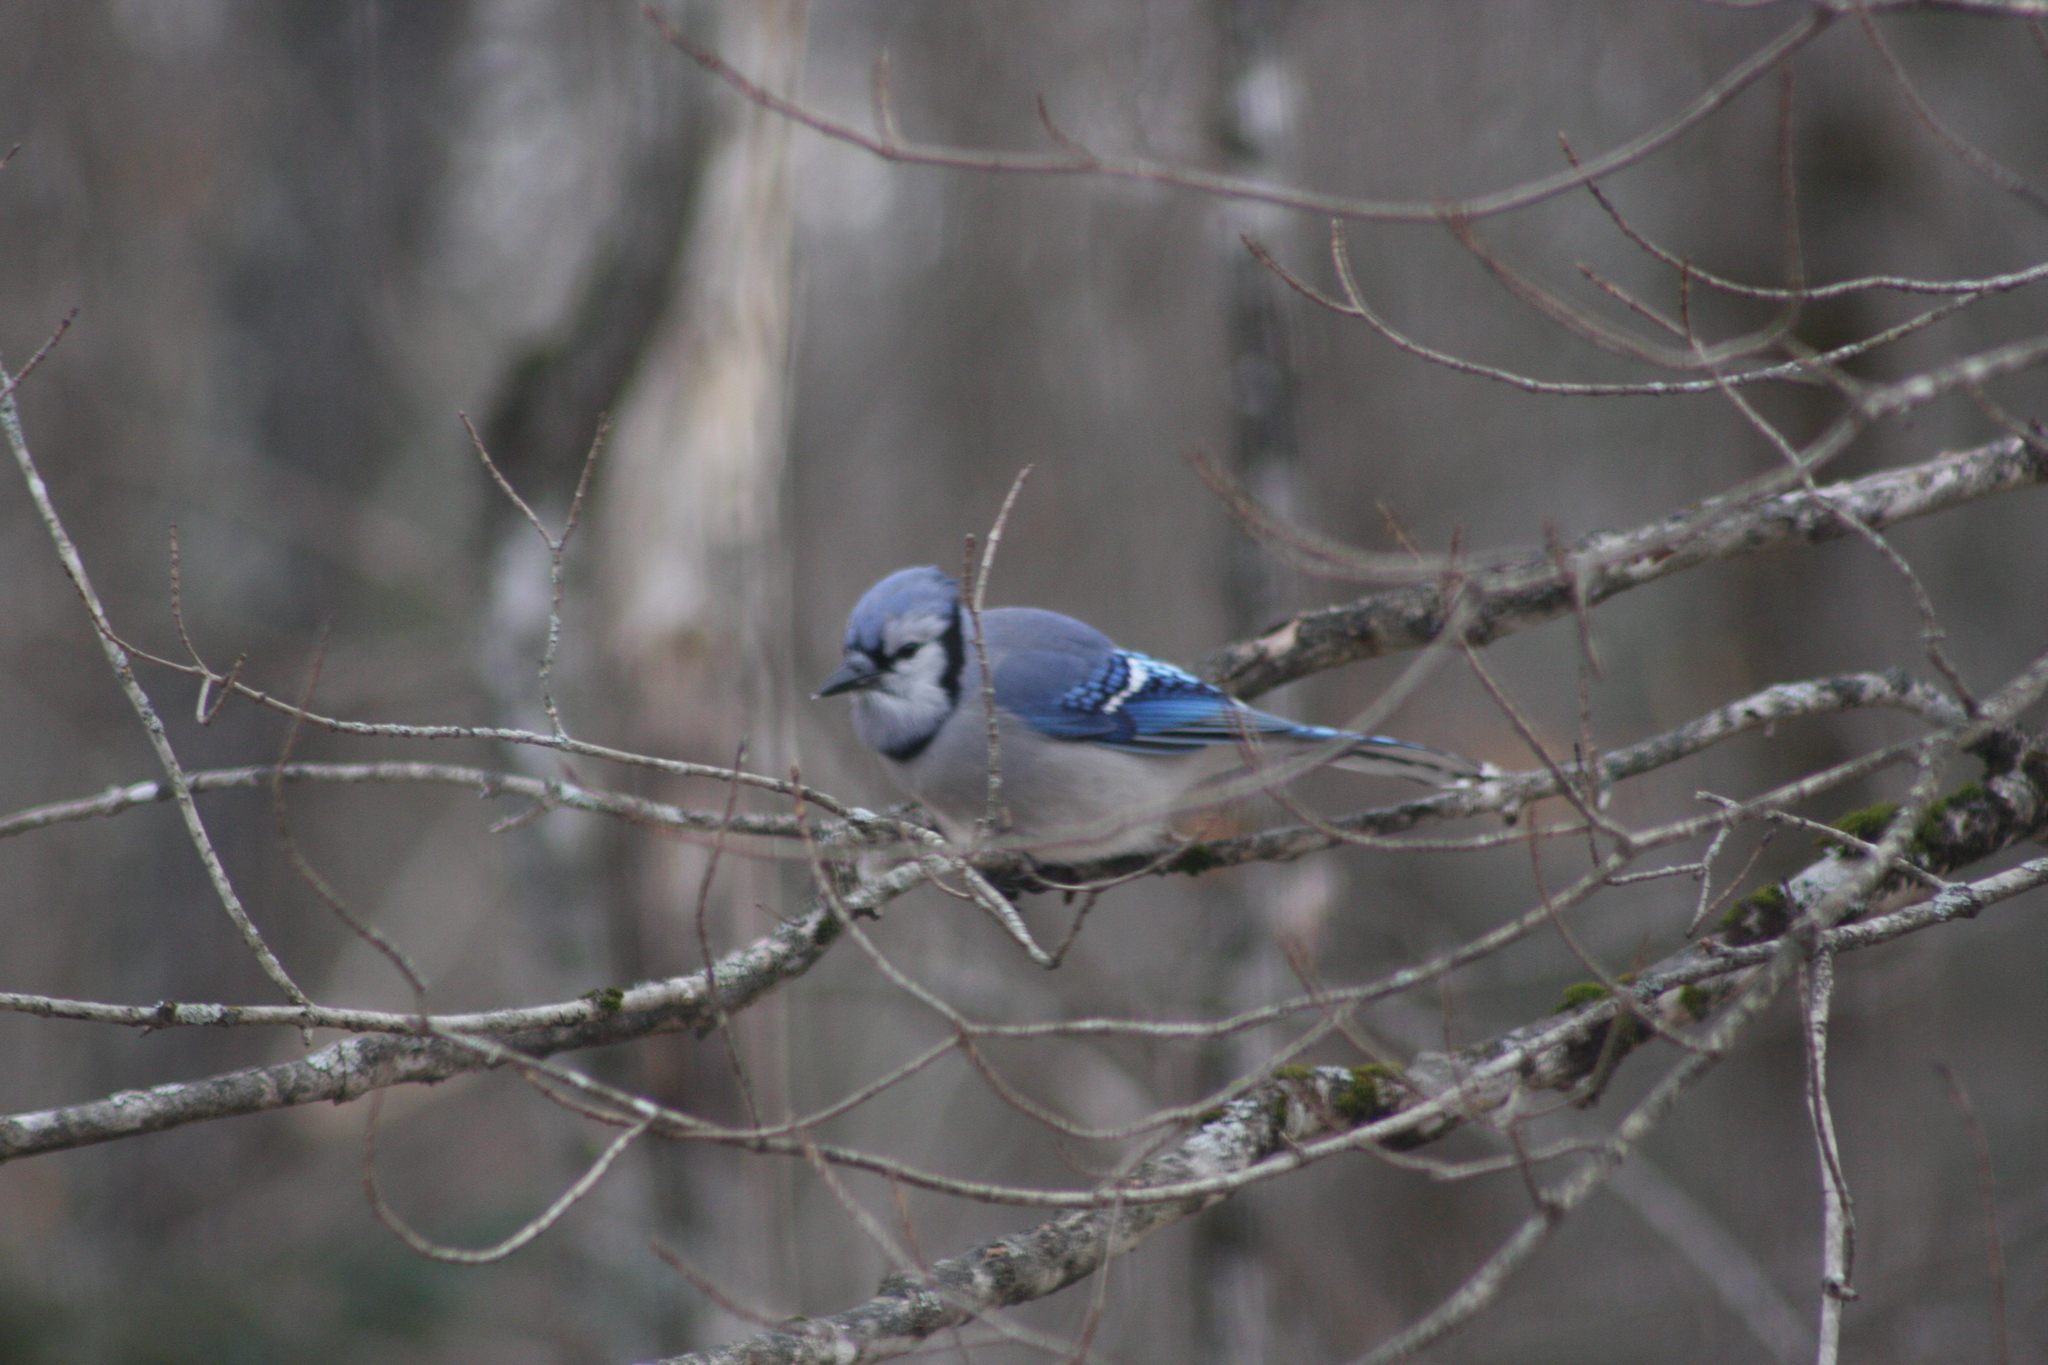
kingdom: Animalia
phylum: Chordata
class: Aves
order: Passeriformes
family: Corvidae
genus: Cyanocitta
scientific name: Cyanocitta cristata
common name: Blue jay
